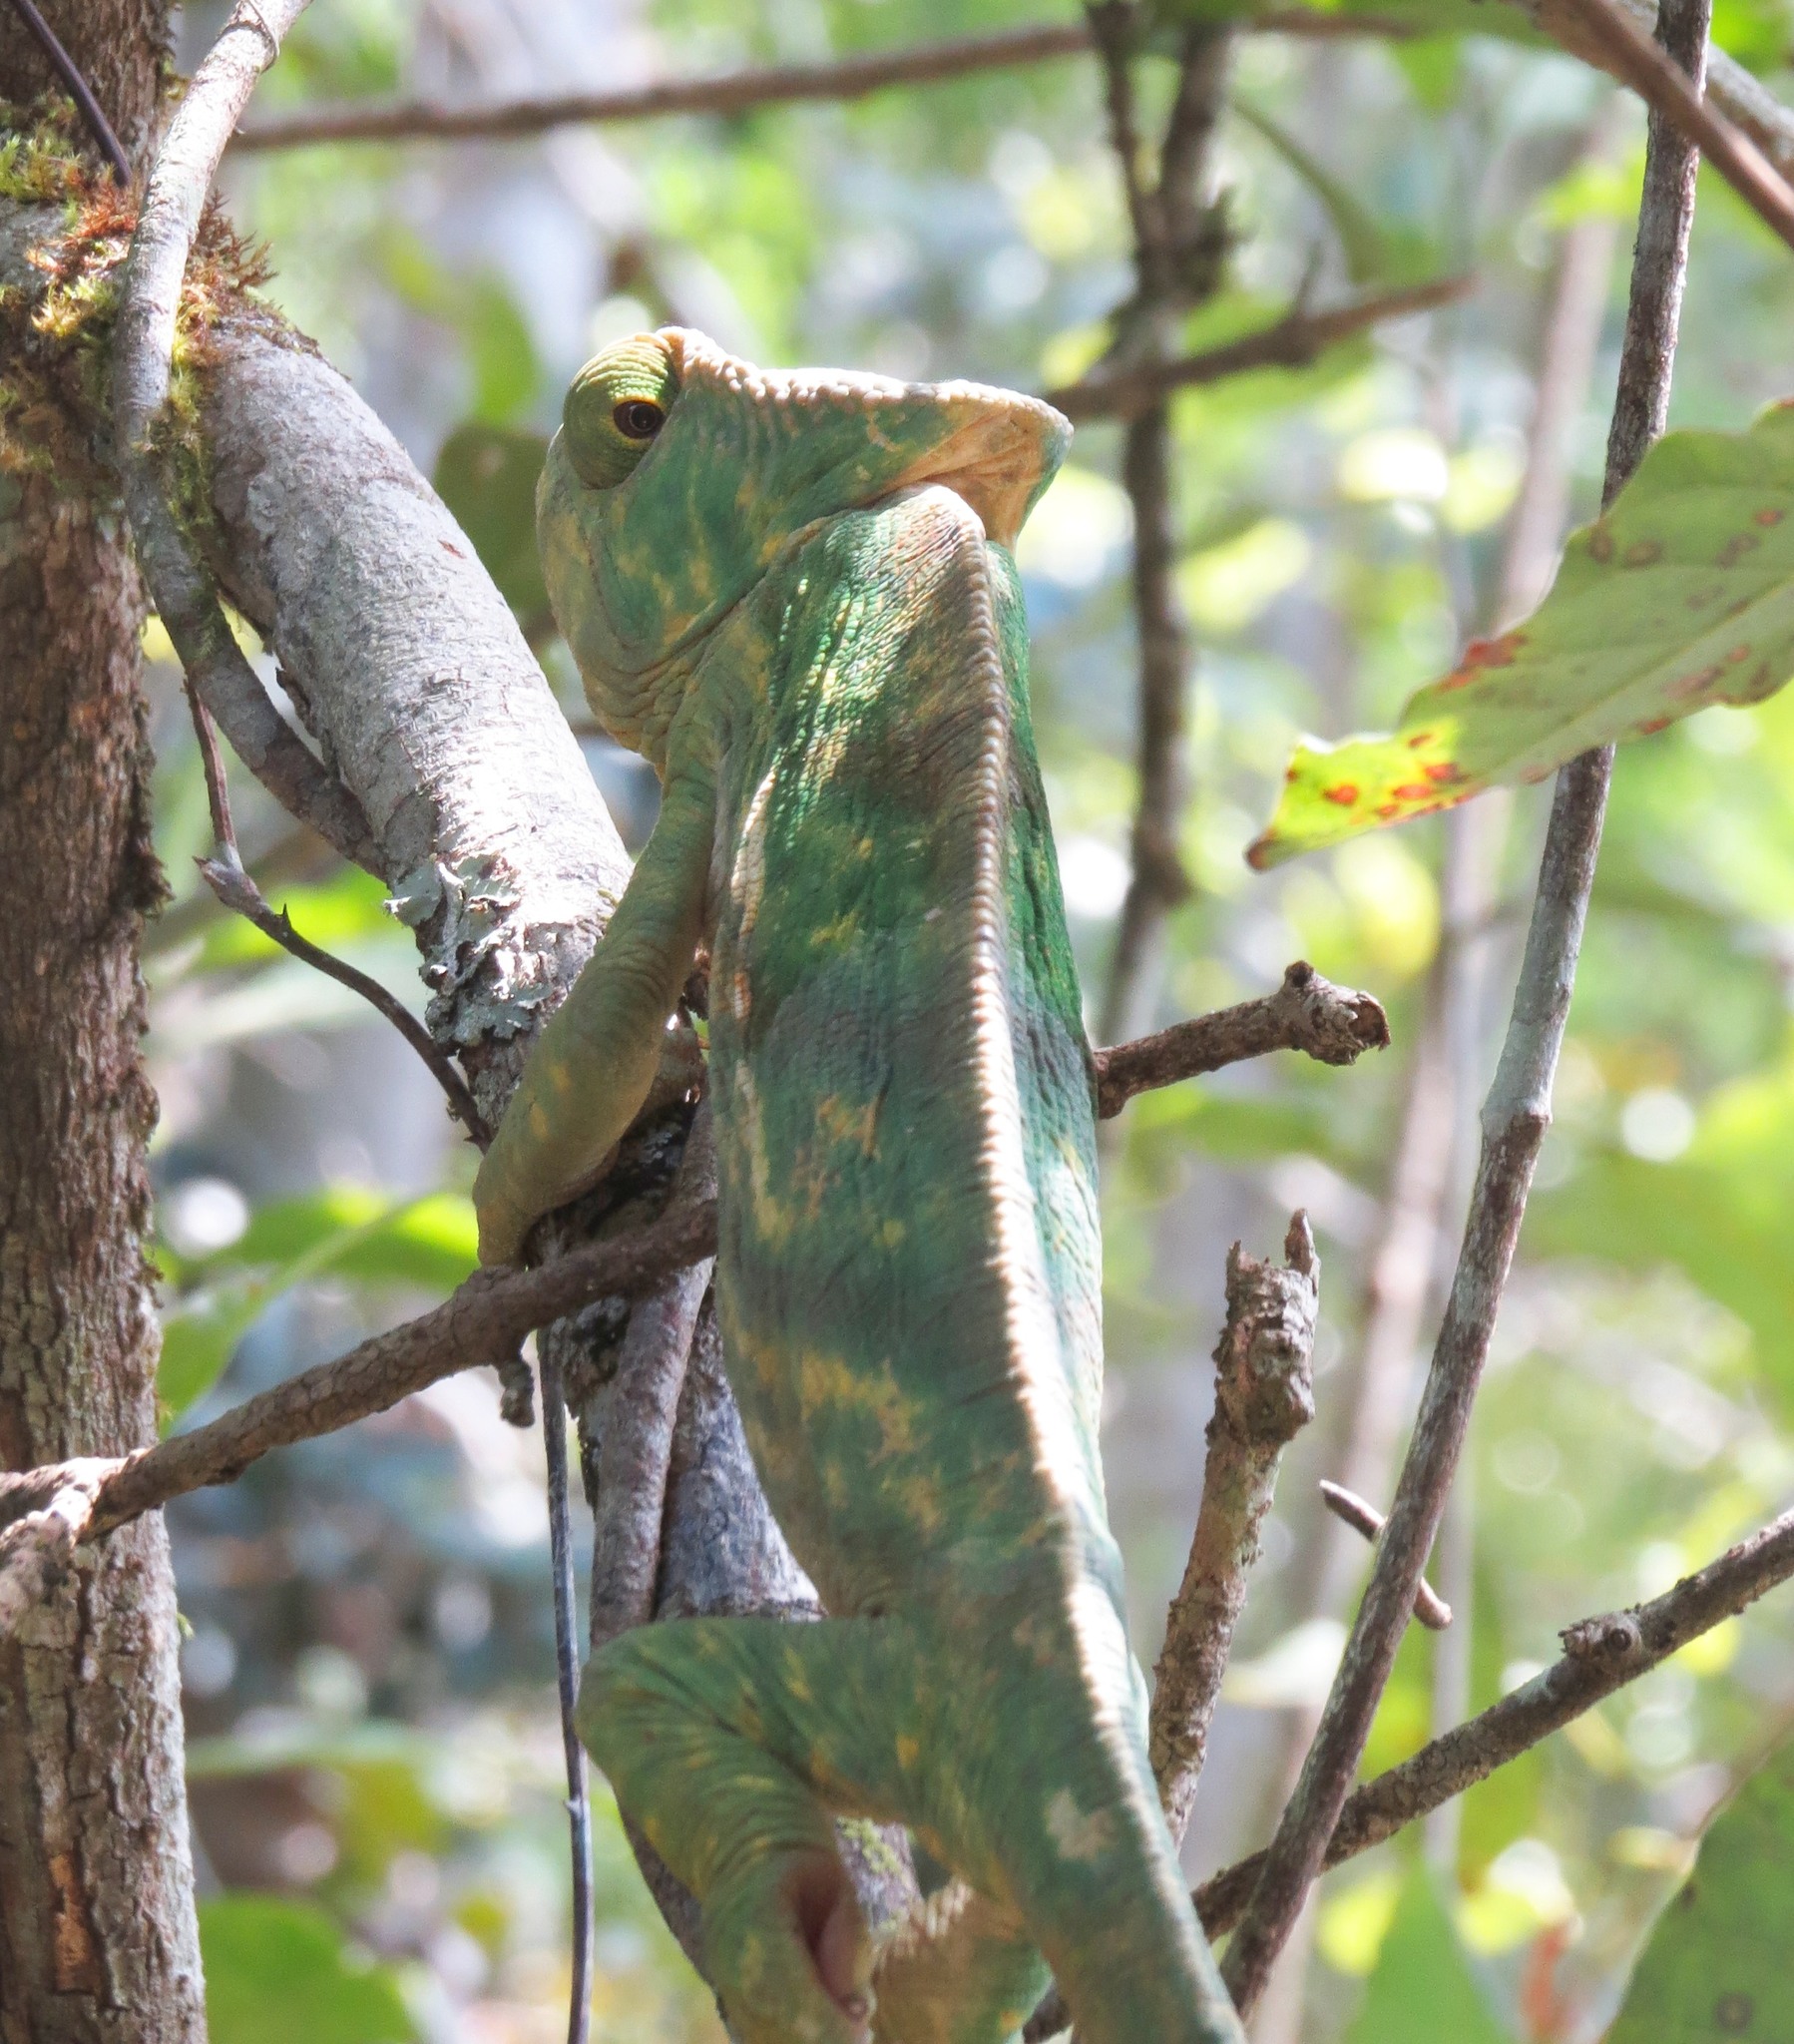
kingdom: Animalia
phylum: Chordata
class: Squamata
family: Chamaeleonidae
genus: Calumma
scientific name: Calumma parsonii
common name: Parson's chameleon
